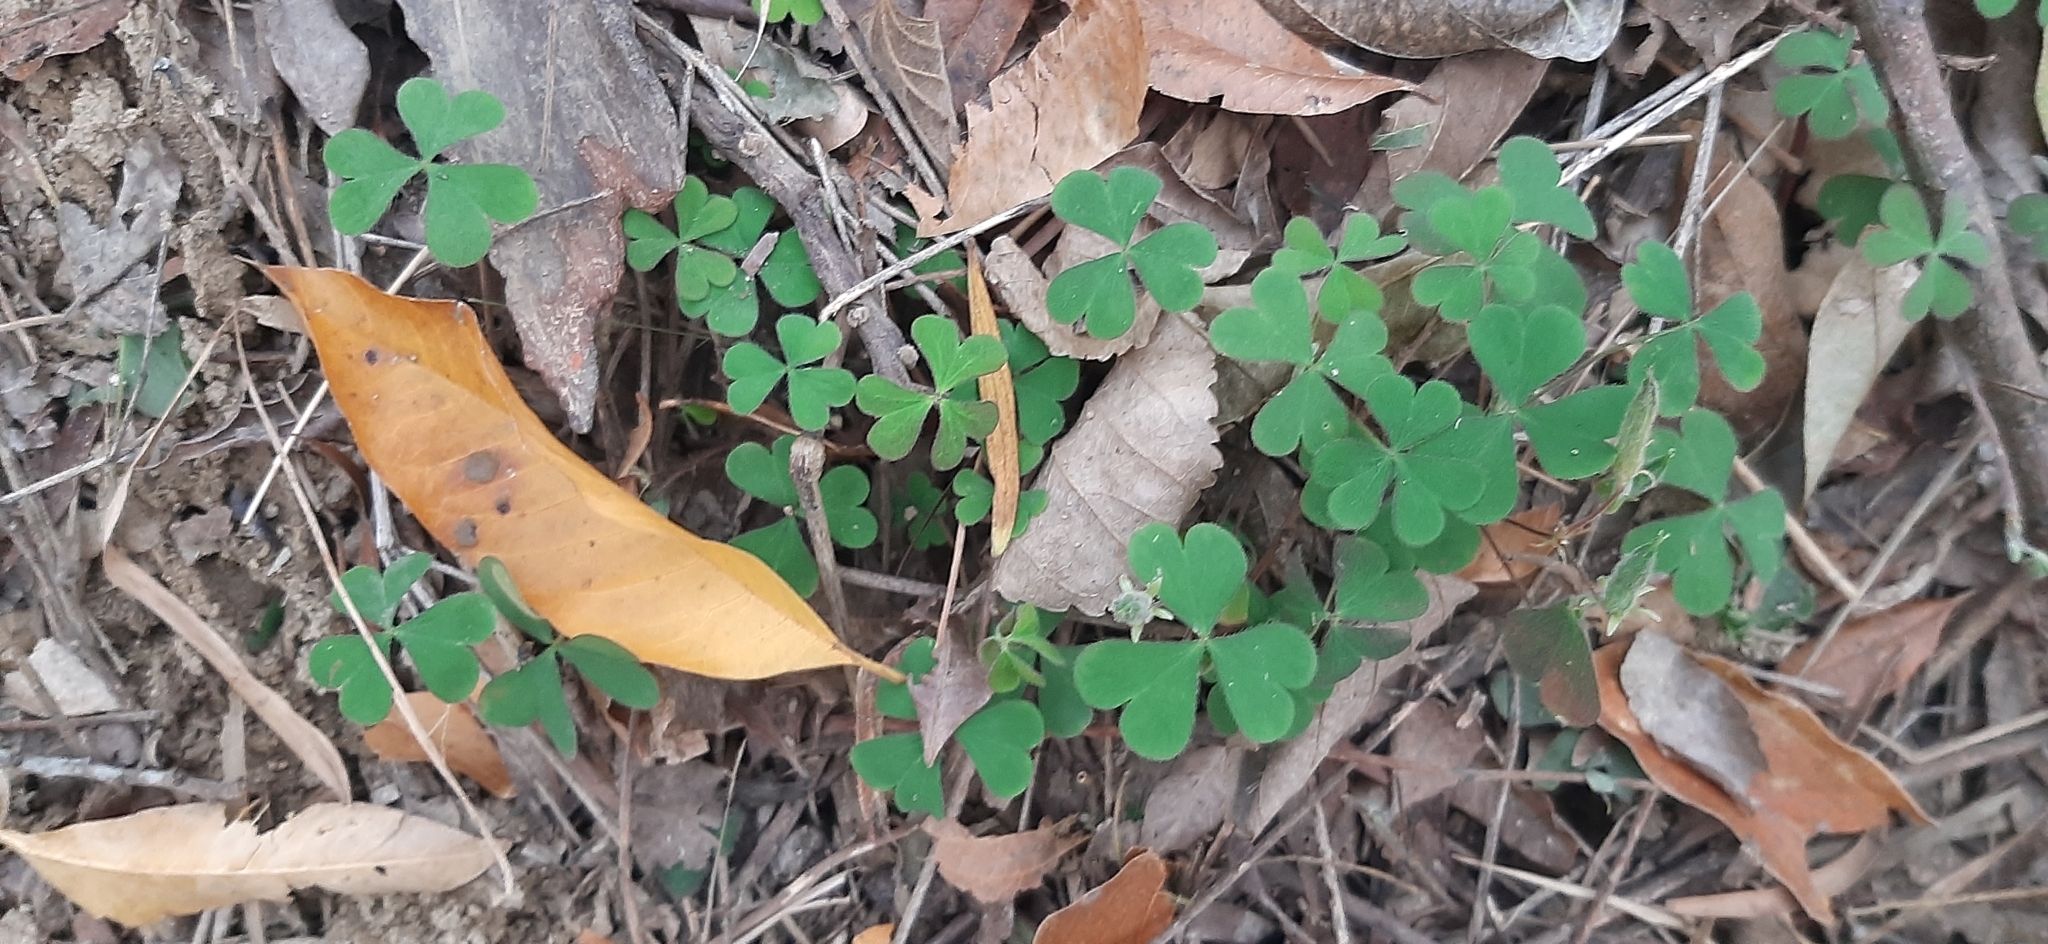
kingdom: Plantae
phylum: Tracheophyta
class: Magnoliopsida
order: Oxalidales
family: Oxalidaceae
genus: Oxalis
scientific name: Oxalis corniculata
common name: Procumbent yellow-sorrel
